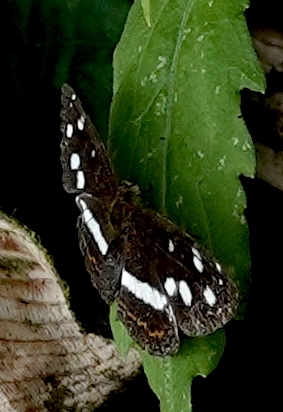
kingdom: Animalia
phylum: Arthropoda
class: Insecta
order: Lepidoptera
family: Nymphalidae
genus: Janatella
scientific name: Janatella fellula
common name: Colombian crescent
